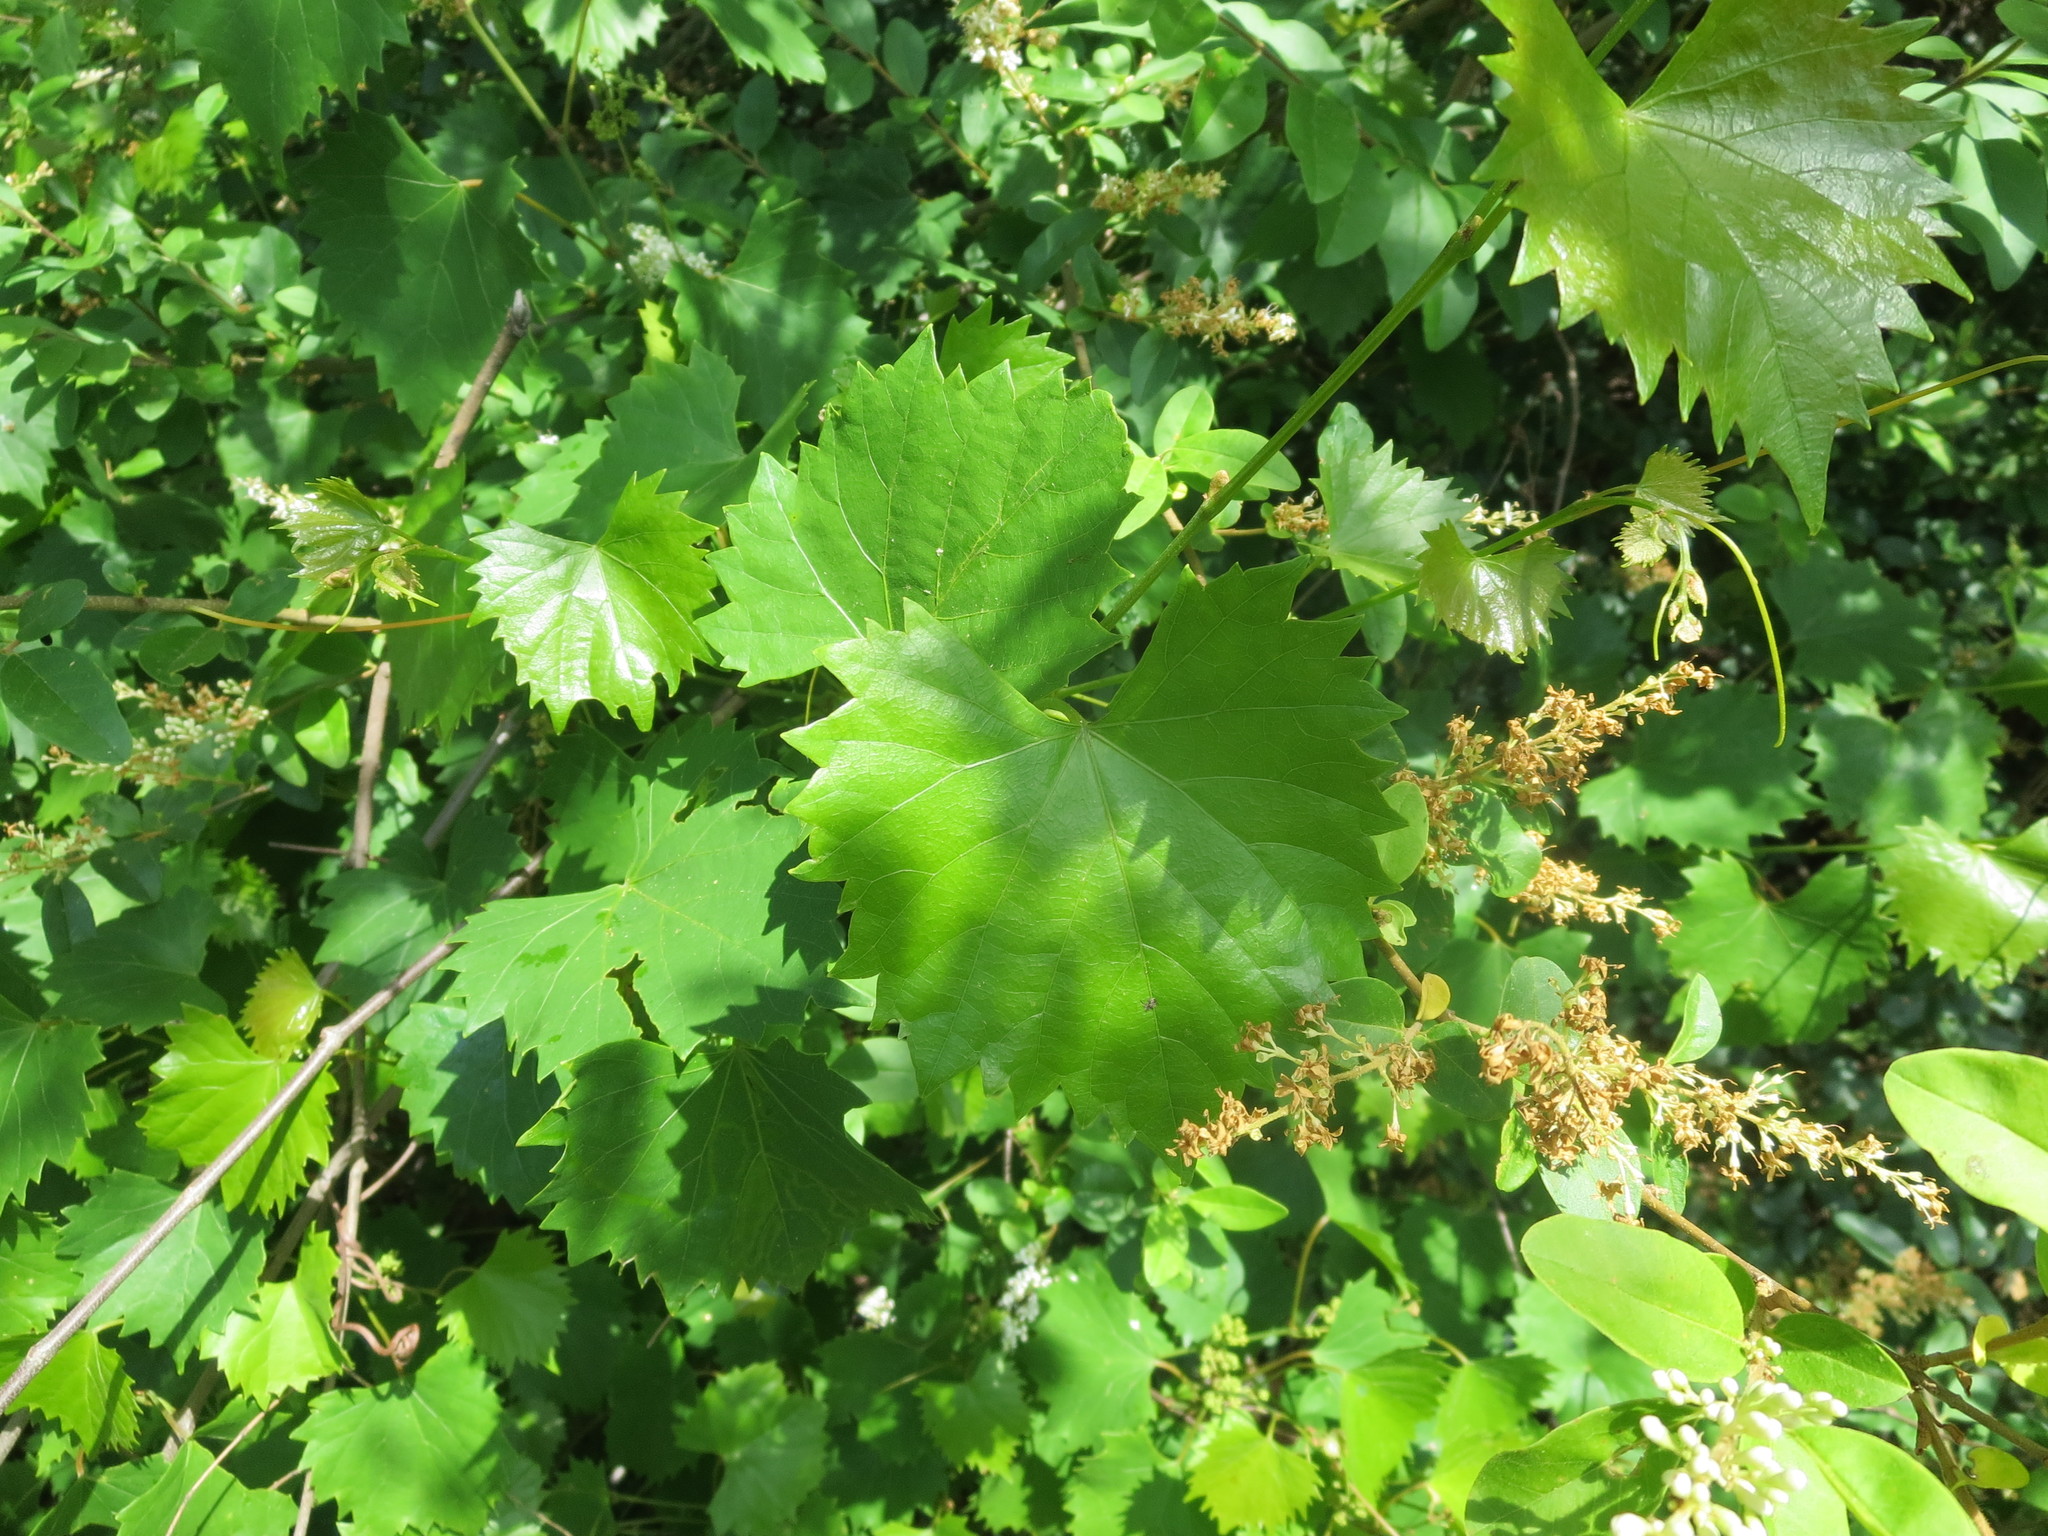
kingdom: Plantae
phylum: Tracheophyta
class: Magnoliopsida
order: Vitales
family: Vitaceae
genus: Vitis
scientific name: Vitis rotundifolia
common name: Muscadine grape
